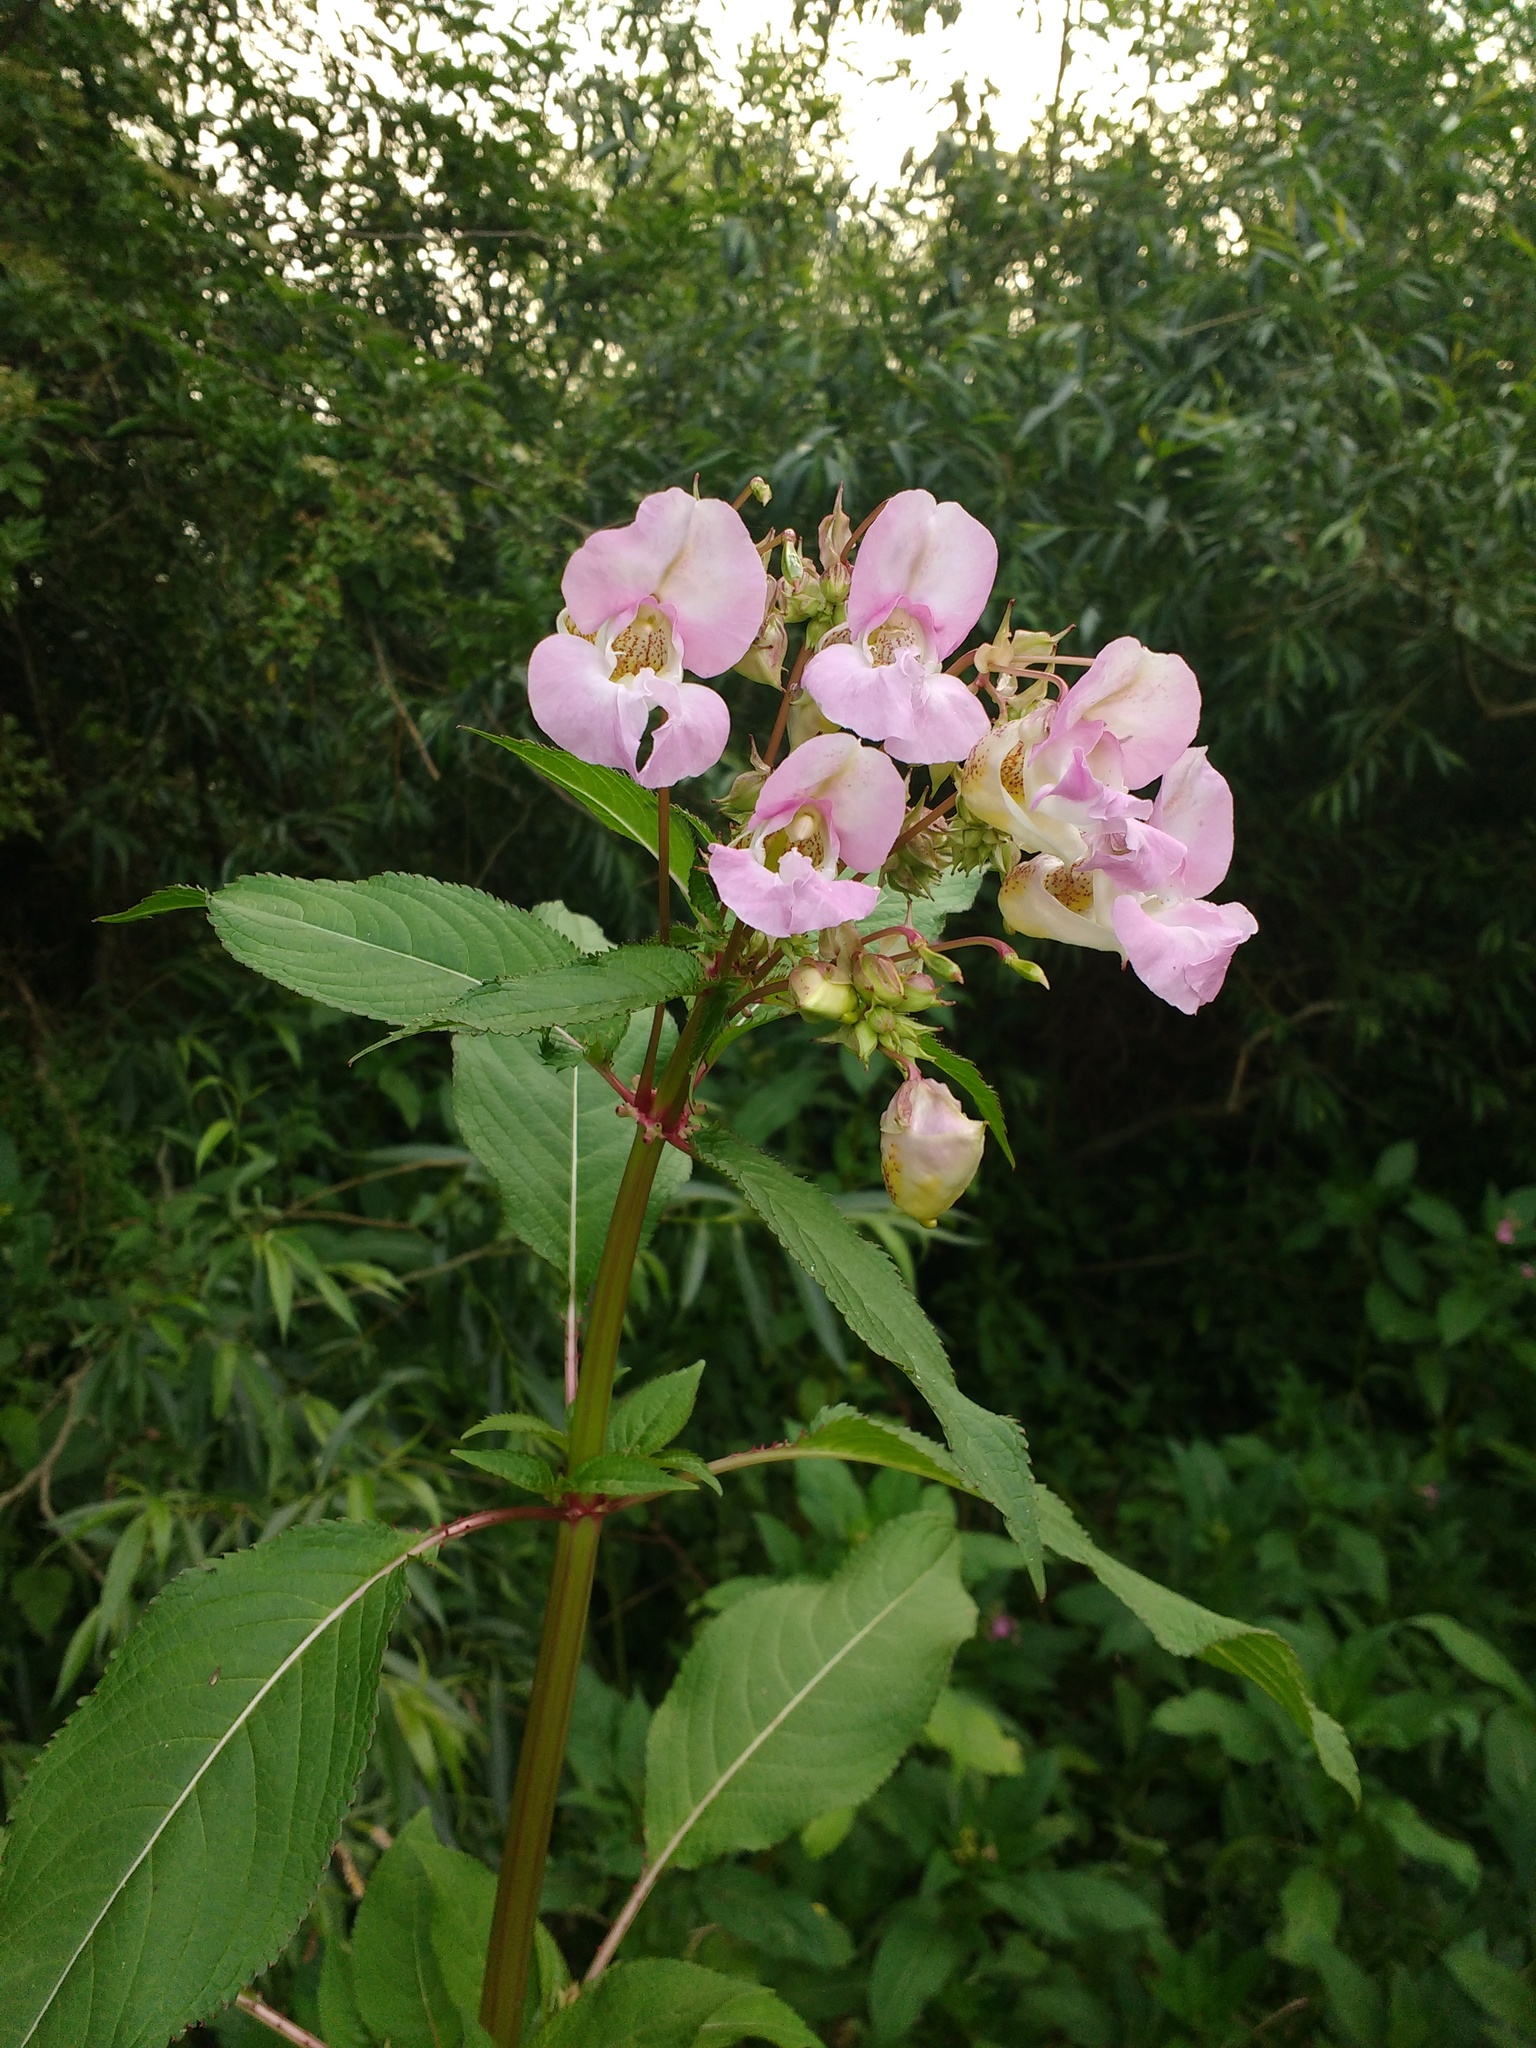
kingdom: Plantae
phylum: Tracheophyta
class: Magnoliopsida
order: Ericales
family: Balsaminaceae
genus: Impatiens
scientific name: Impatiens glandulifera
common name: Himalayan balsam
